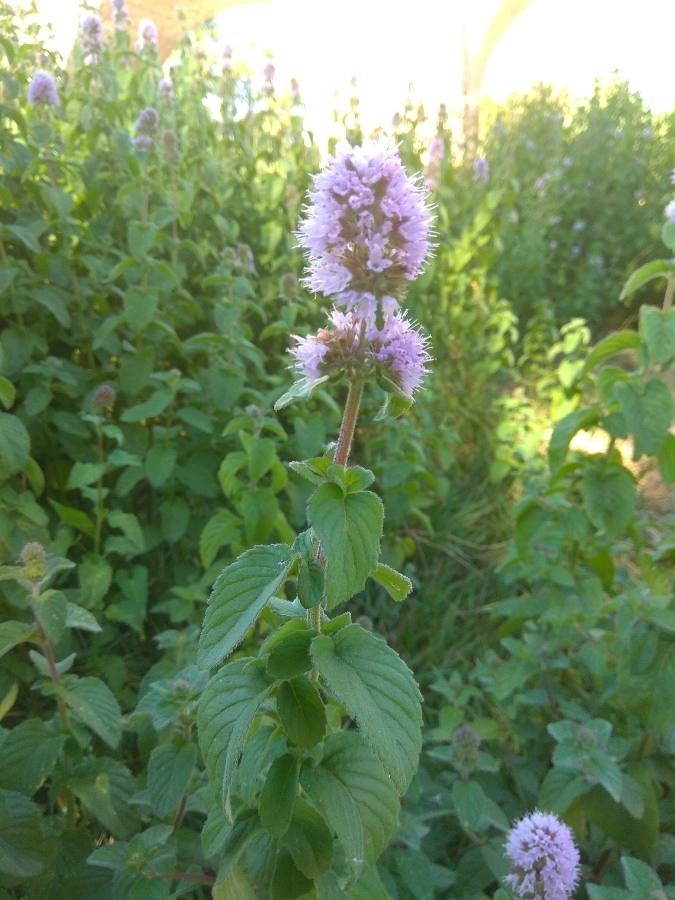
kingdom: Plantae
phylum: Tracheophyta
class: Magnoliopsida
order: Lamiales
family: Lamiaceae
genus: Mentha
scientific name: Mentha aquatica
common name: Water mint
